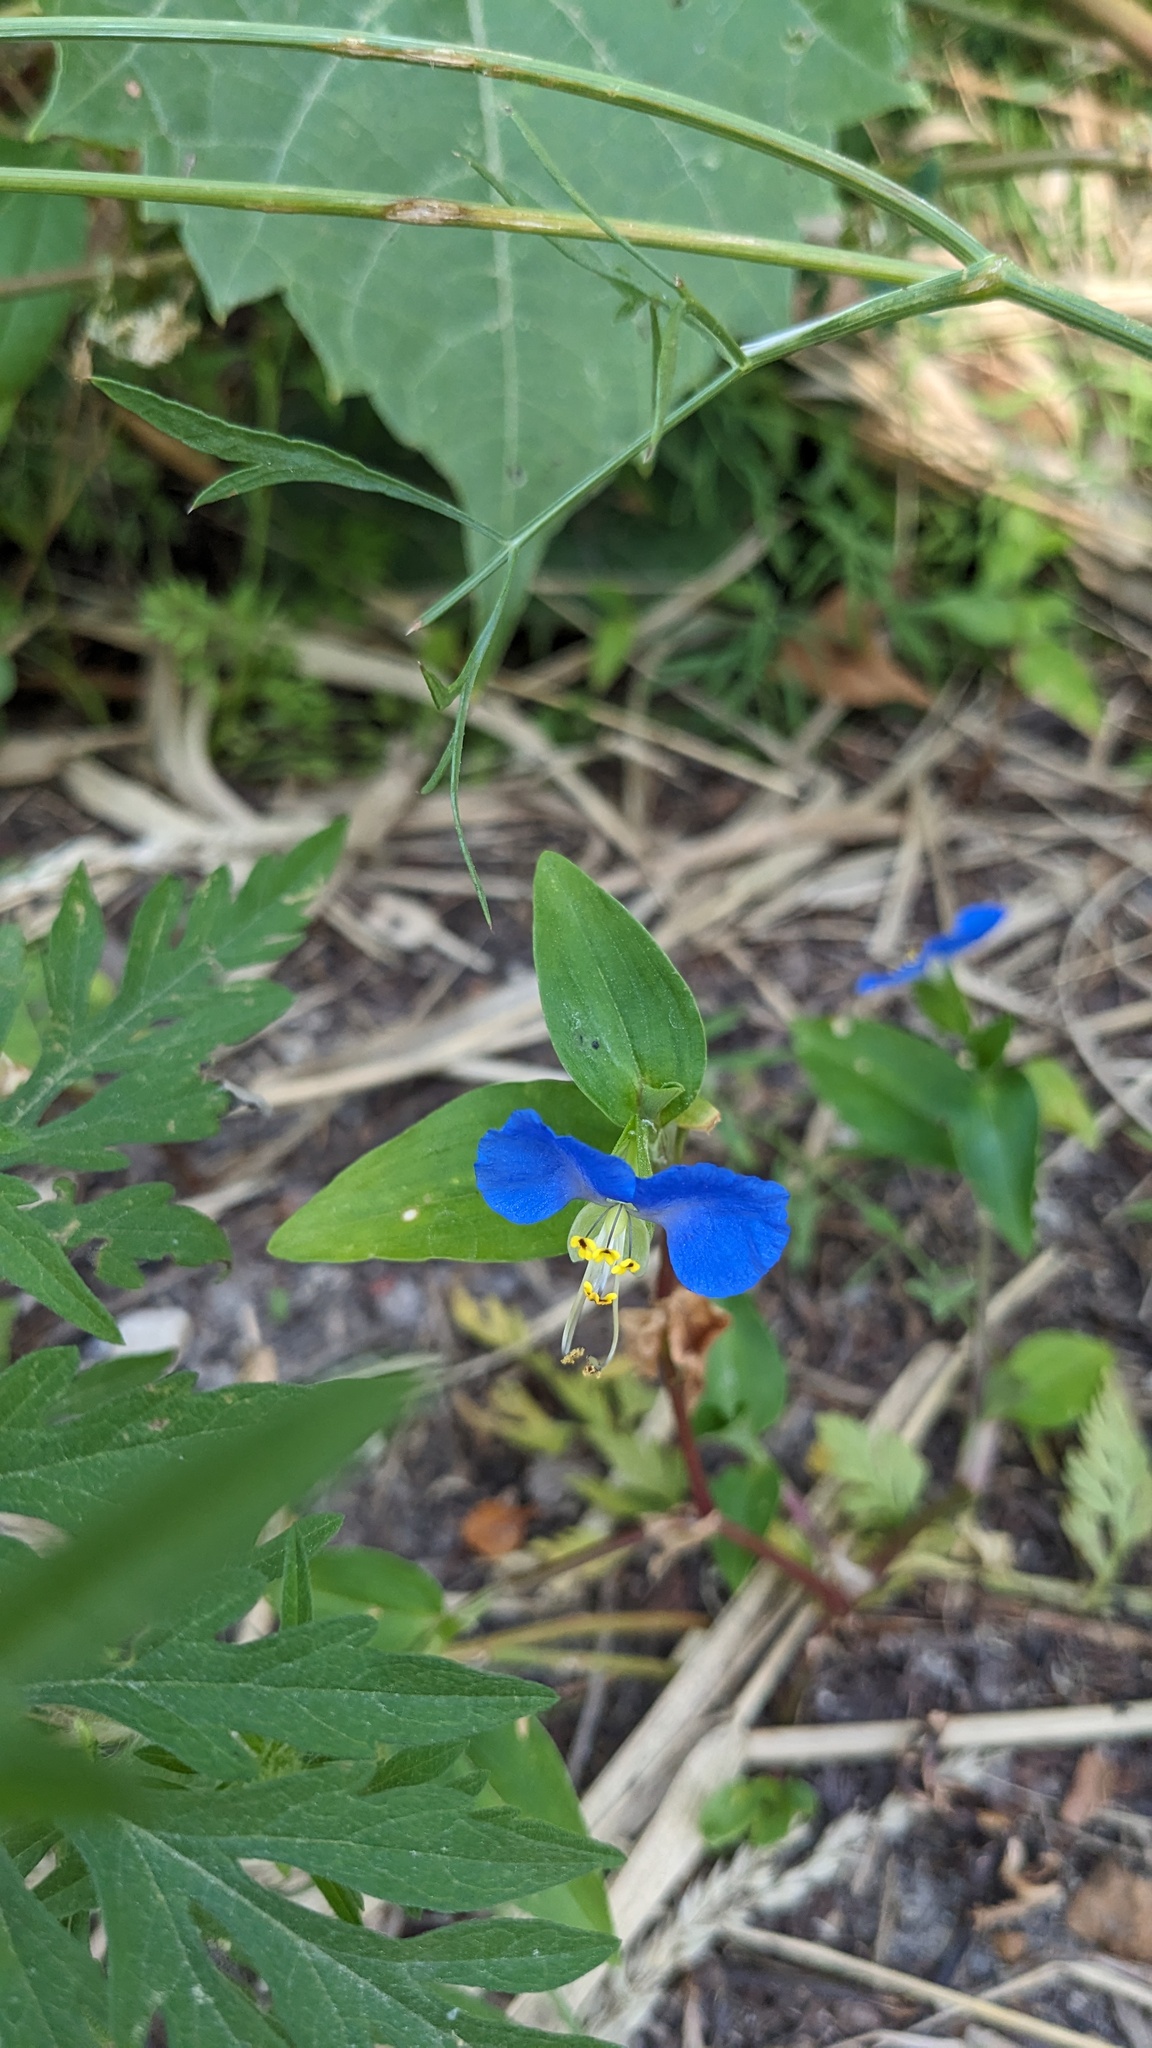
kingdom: Plantae
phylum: Tracheophyta
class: Liliopsida
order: Commelinales
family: Commelinaceae
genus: Commelina
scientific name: Commelina communis
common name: Asiatic dayflower
